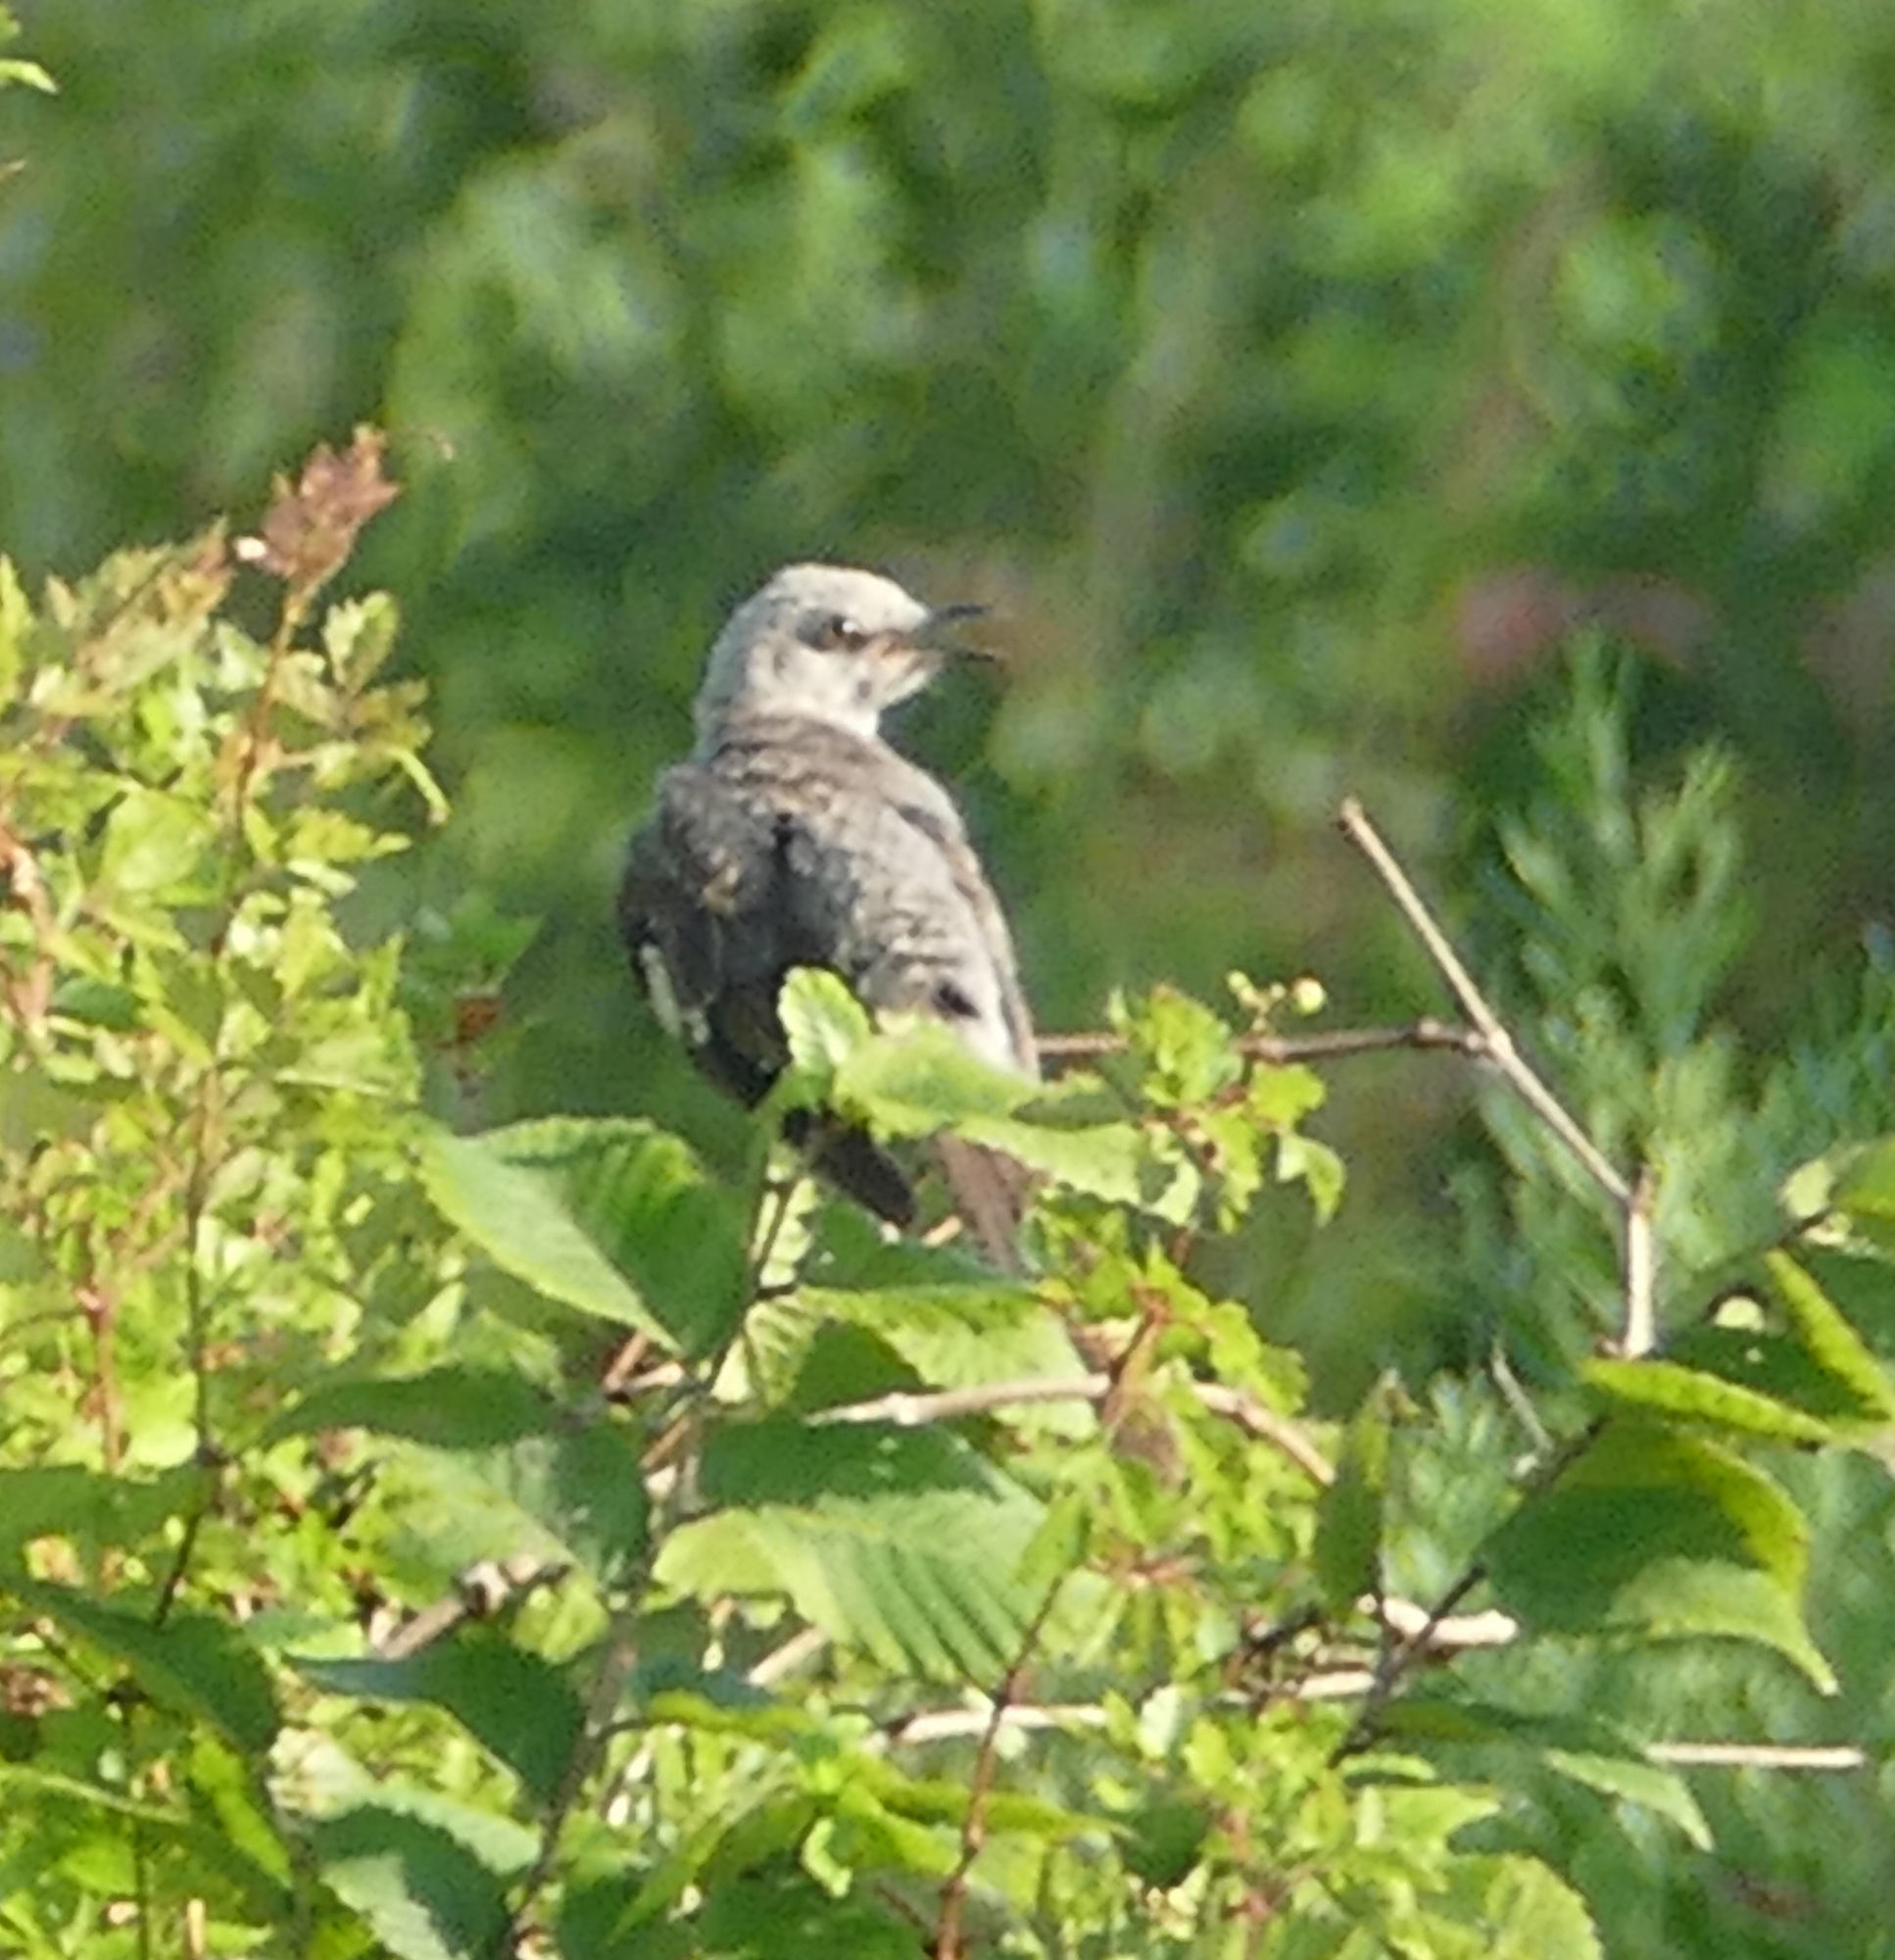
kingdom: Animalia
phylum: Chordata
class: Aves
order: Passeriformes
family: Mimidae
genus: Mimus
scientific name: Mimus polyglottos
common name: Northern mockingbird
